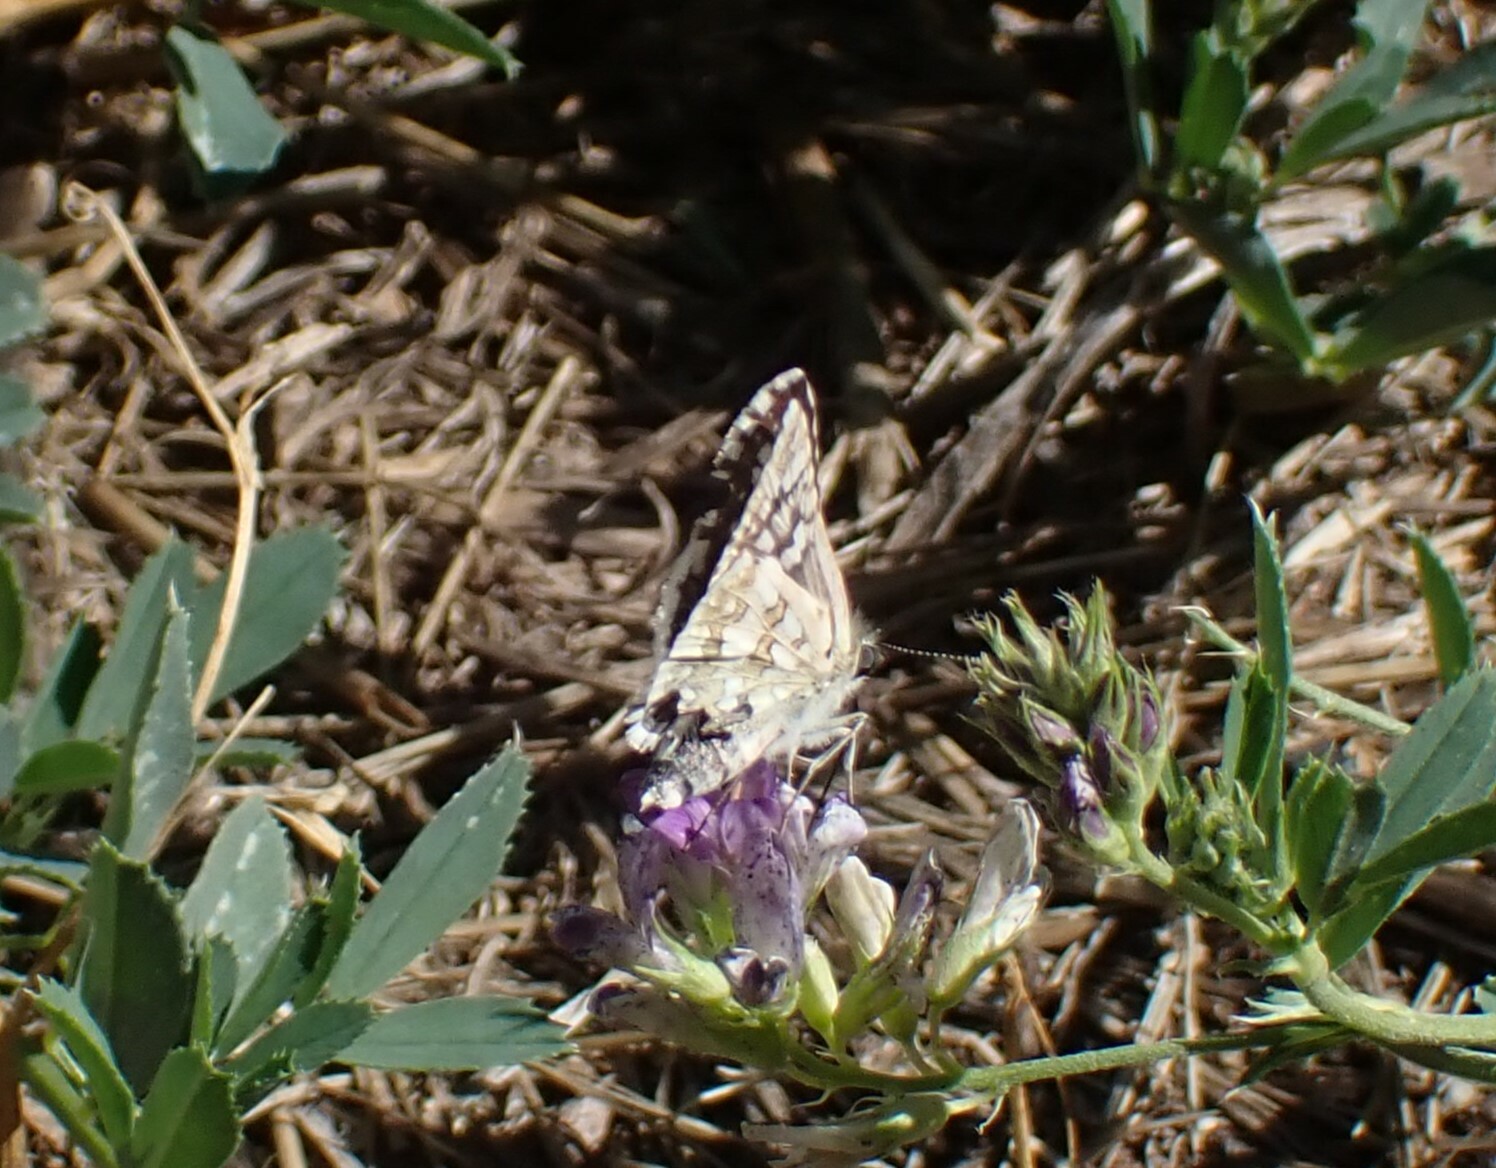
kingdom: Animalia
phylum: Arthropoda
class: Insecta
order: Lepidoptera
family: Hesperiidae
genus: Burnsius
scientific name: Burnsius communis
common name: Common checkered-skipper
